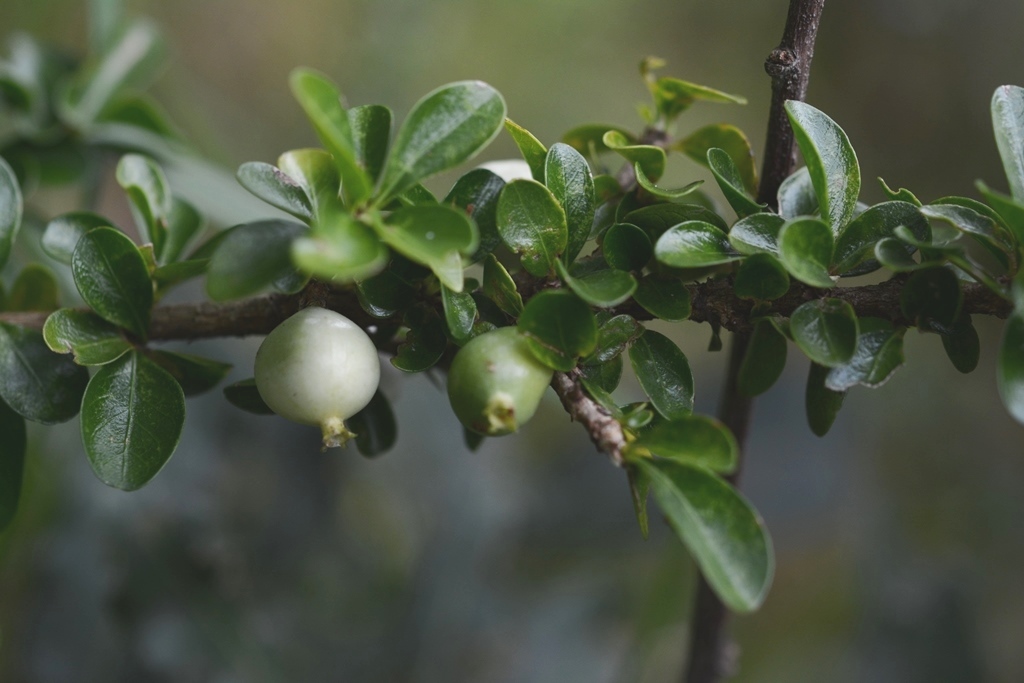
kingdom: Plantae
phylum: Tracheophyta
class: Magnoliopsida
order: Gentianales
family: Rubiaceae
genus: Randia
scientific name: Randia chiapensis
